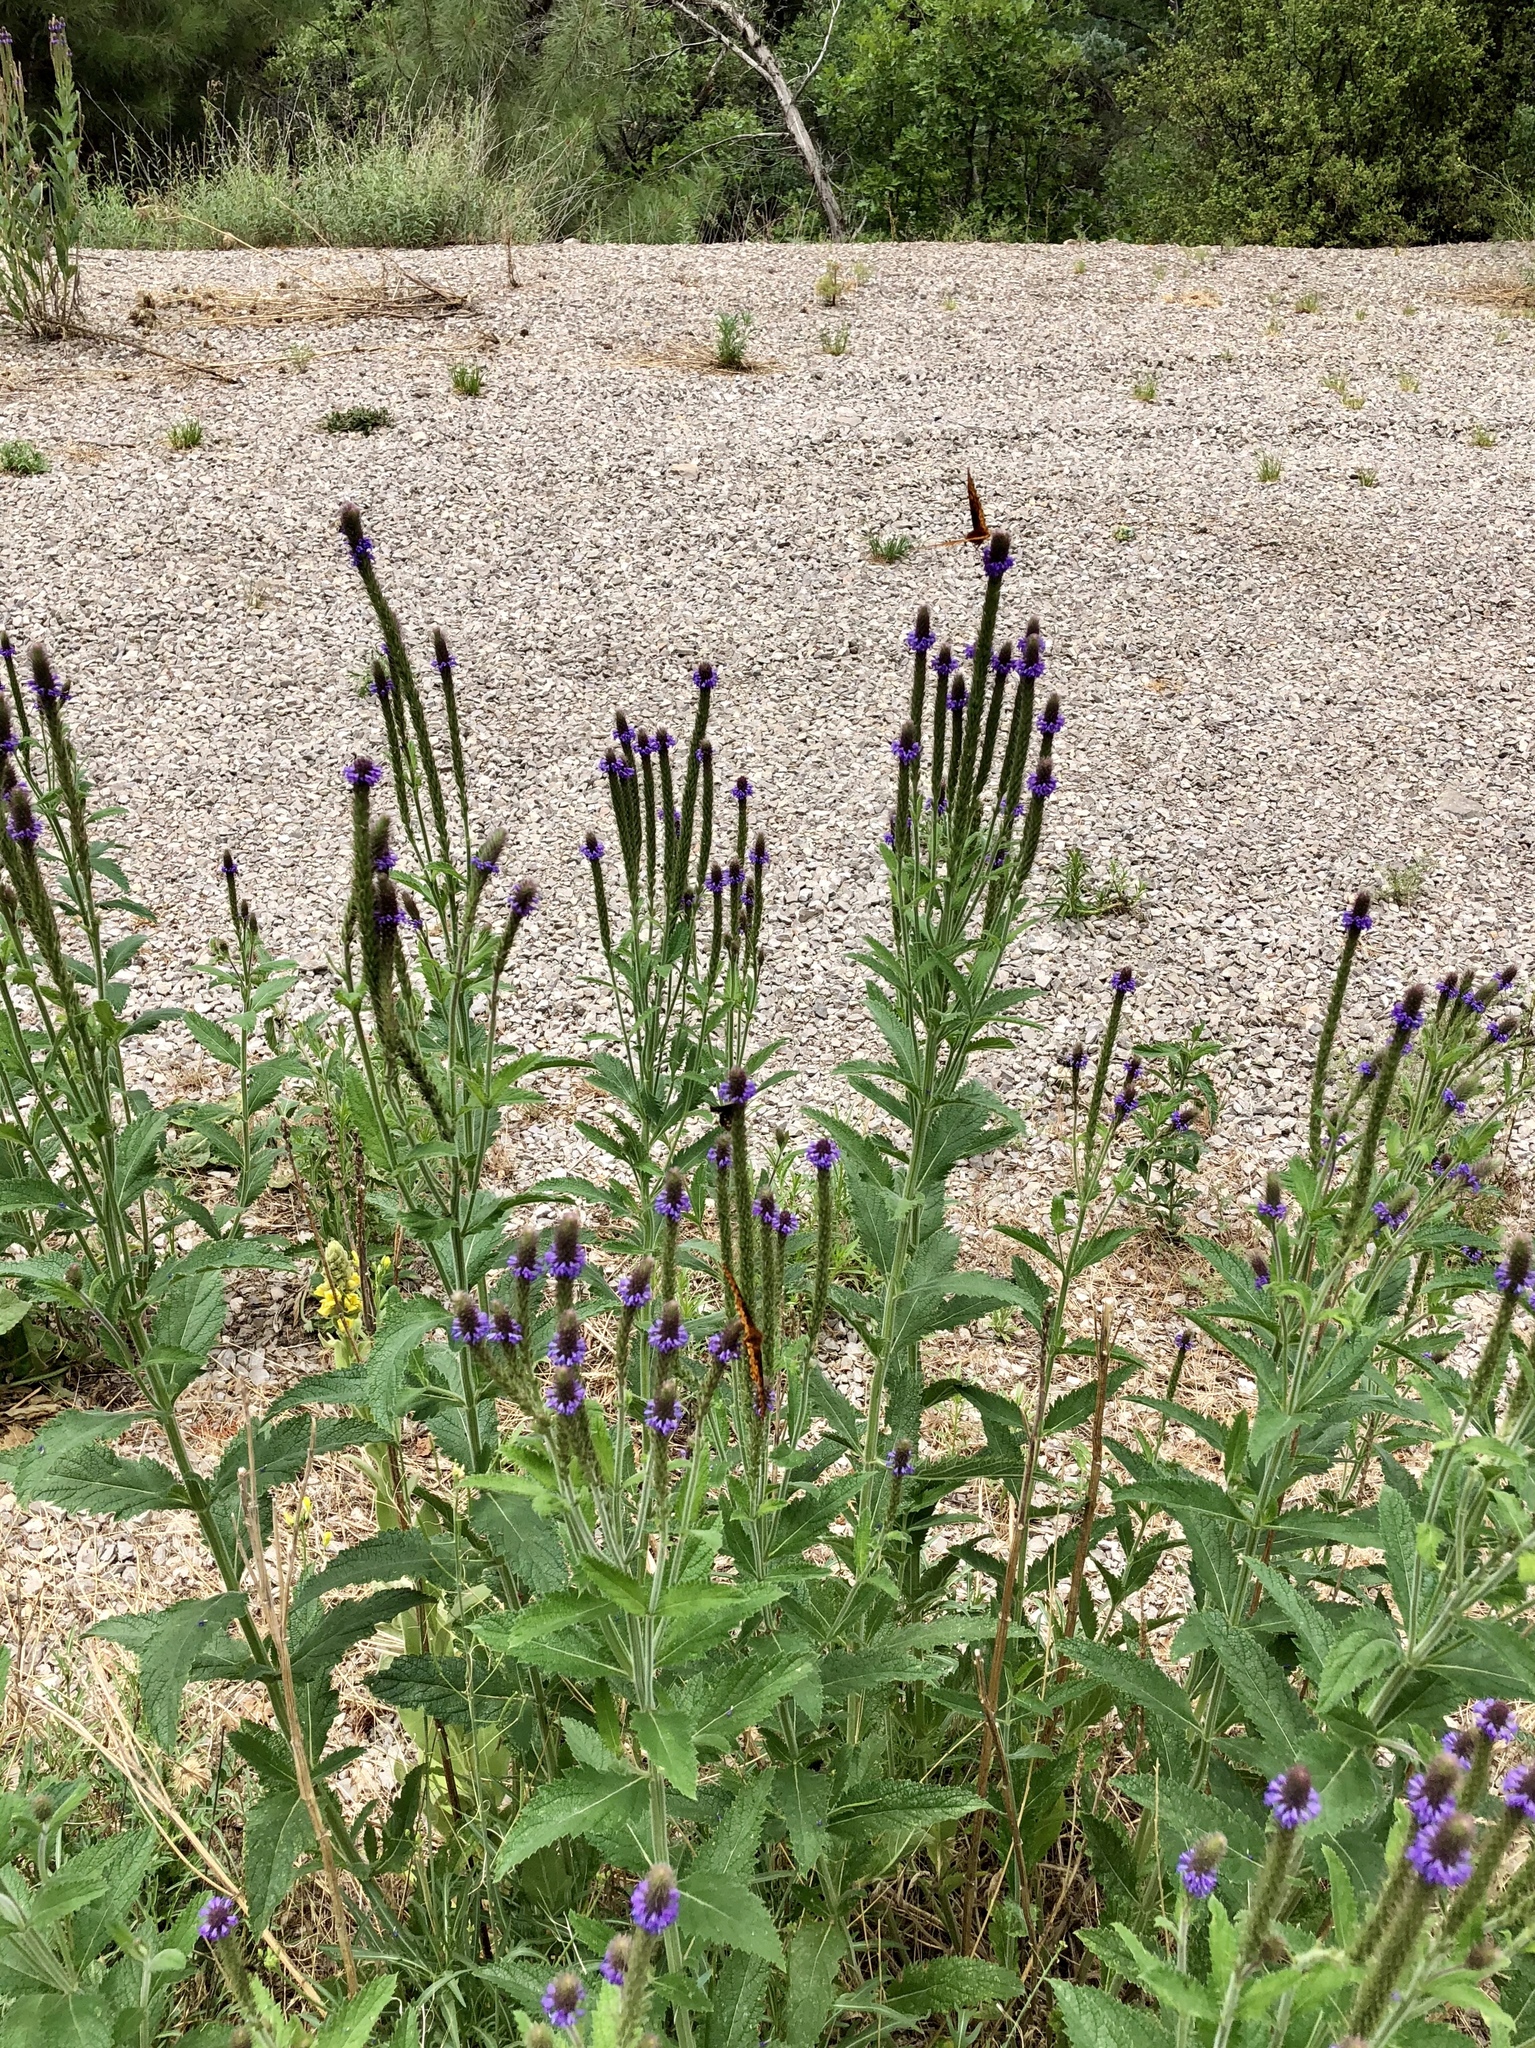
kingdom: Plantae
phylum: Tracheophyta
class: Magnoliopsida
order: Lamiales
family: Verbenaceae
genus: Verbena
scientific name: Verbena macdougalii
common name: New mexico vervain
